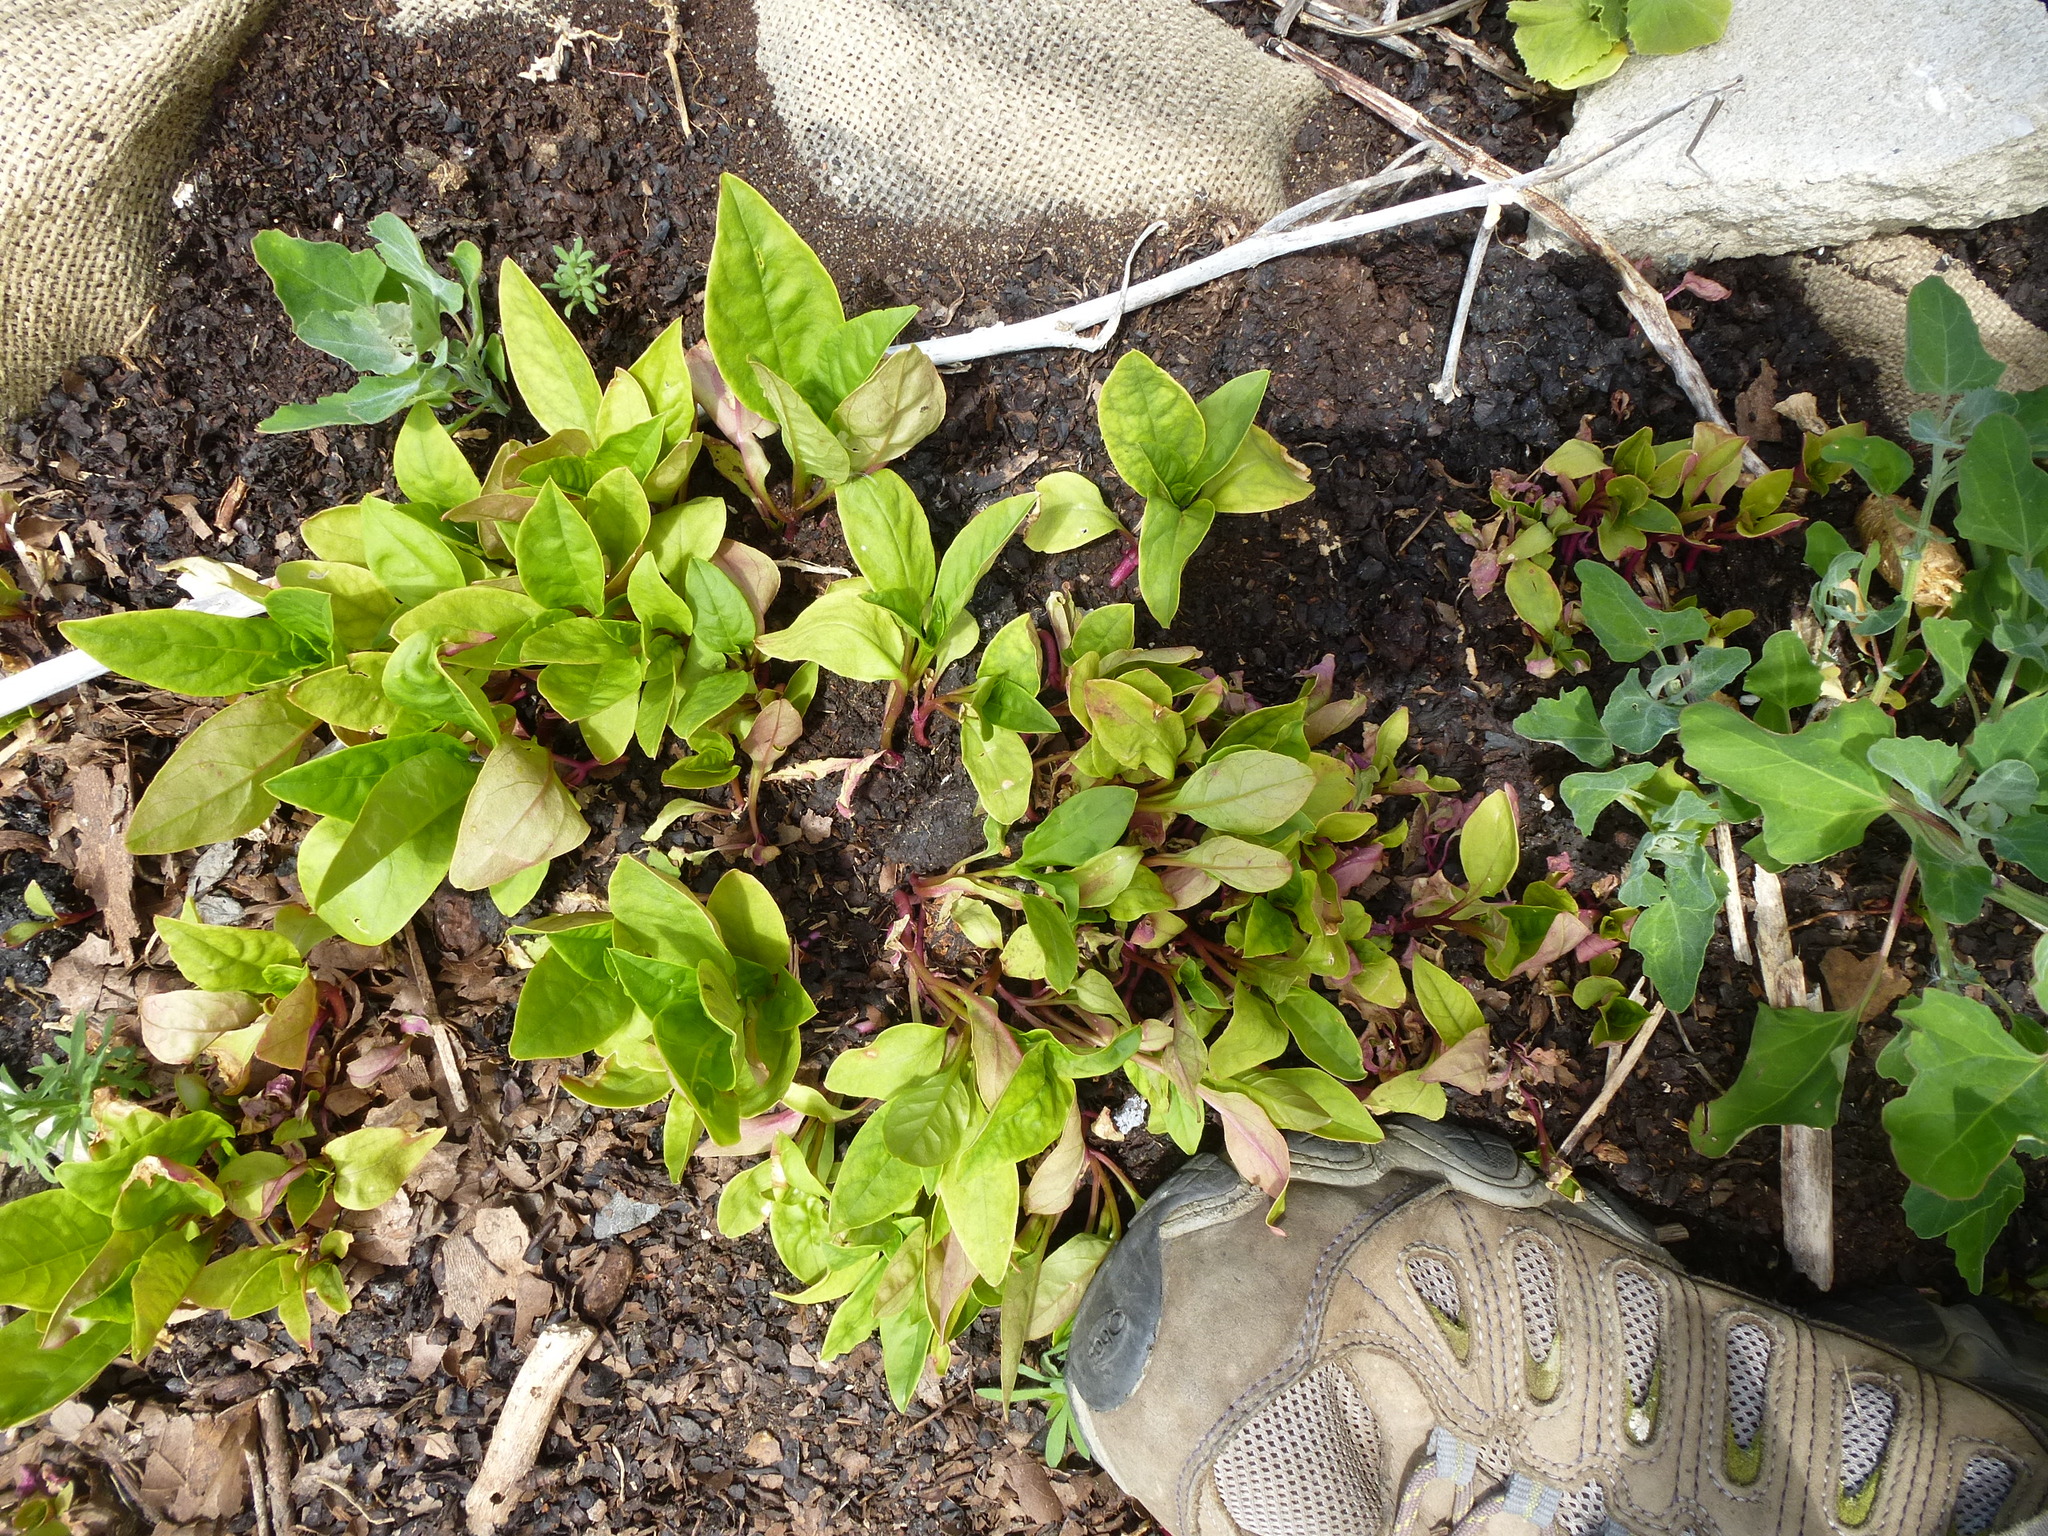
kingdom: Plantae
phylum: Tracheophyta
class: Magnoliopsida
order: Caryophyllales
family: Phytolaccaceae
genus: Phytolacca
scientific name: Phytolacca americana
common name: American pokeweed
